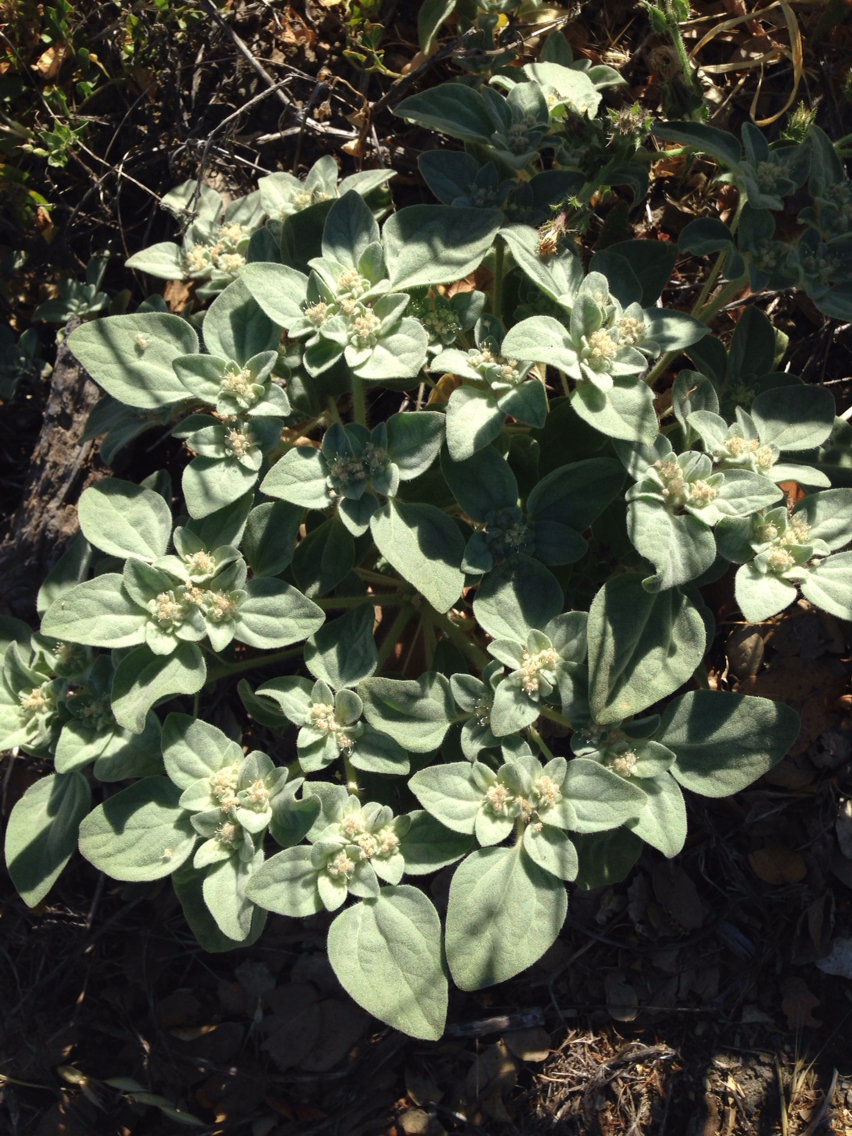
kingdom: Plantae
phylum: Tracheophyta
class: Magnoliopsida
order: Malpighiales
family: Euphorbiaceae
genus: Croton
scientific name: Croton setiger
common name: Dove weed
